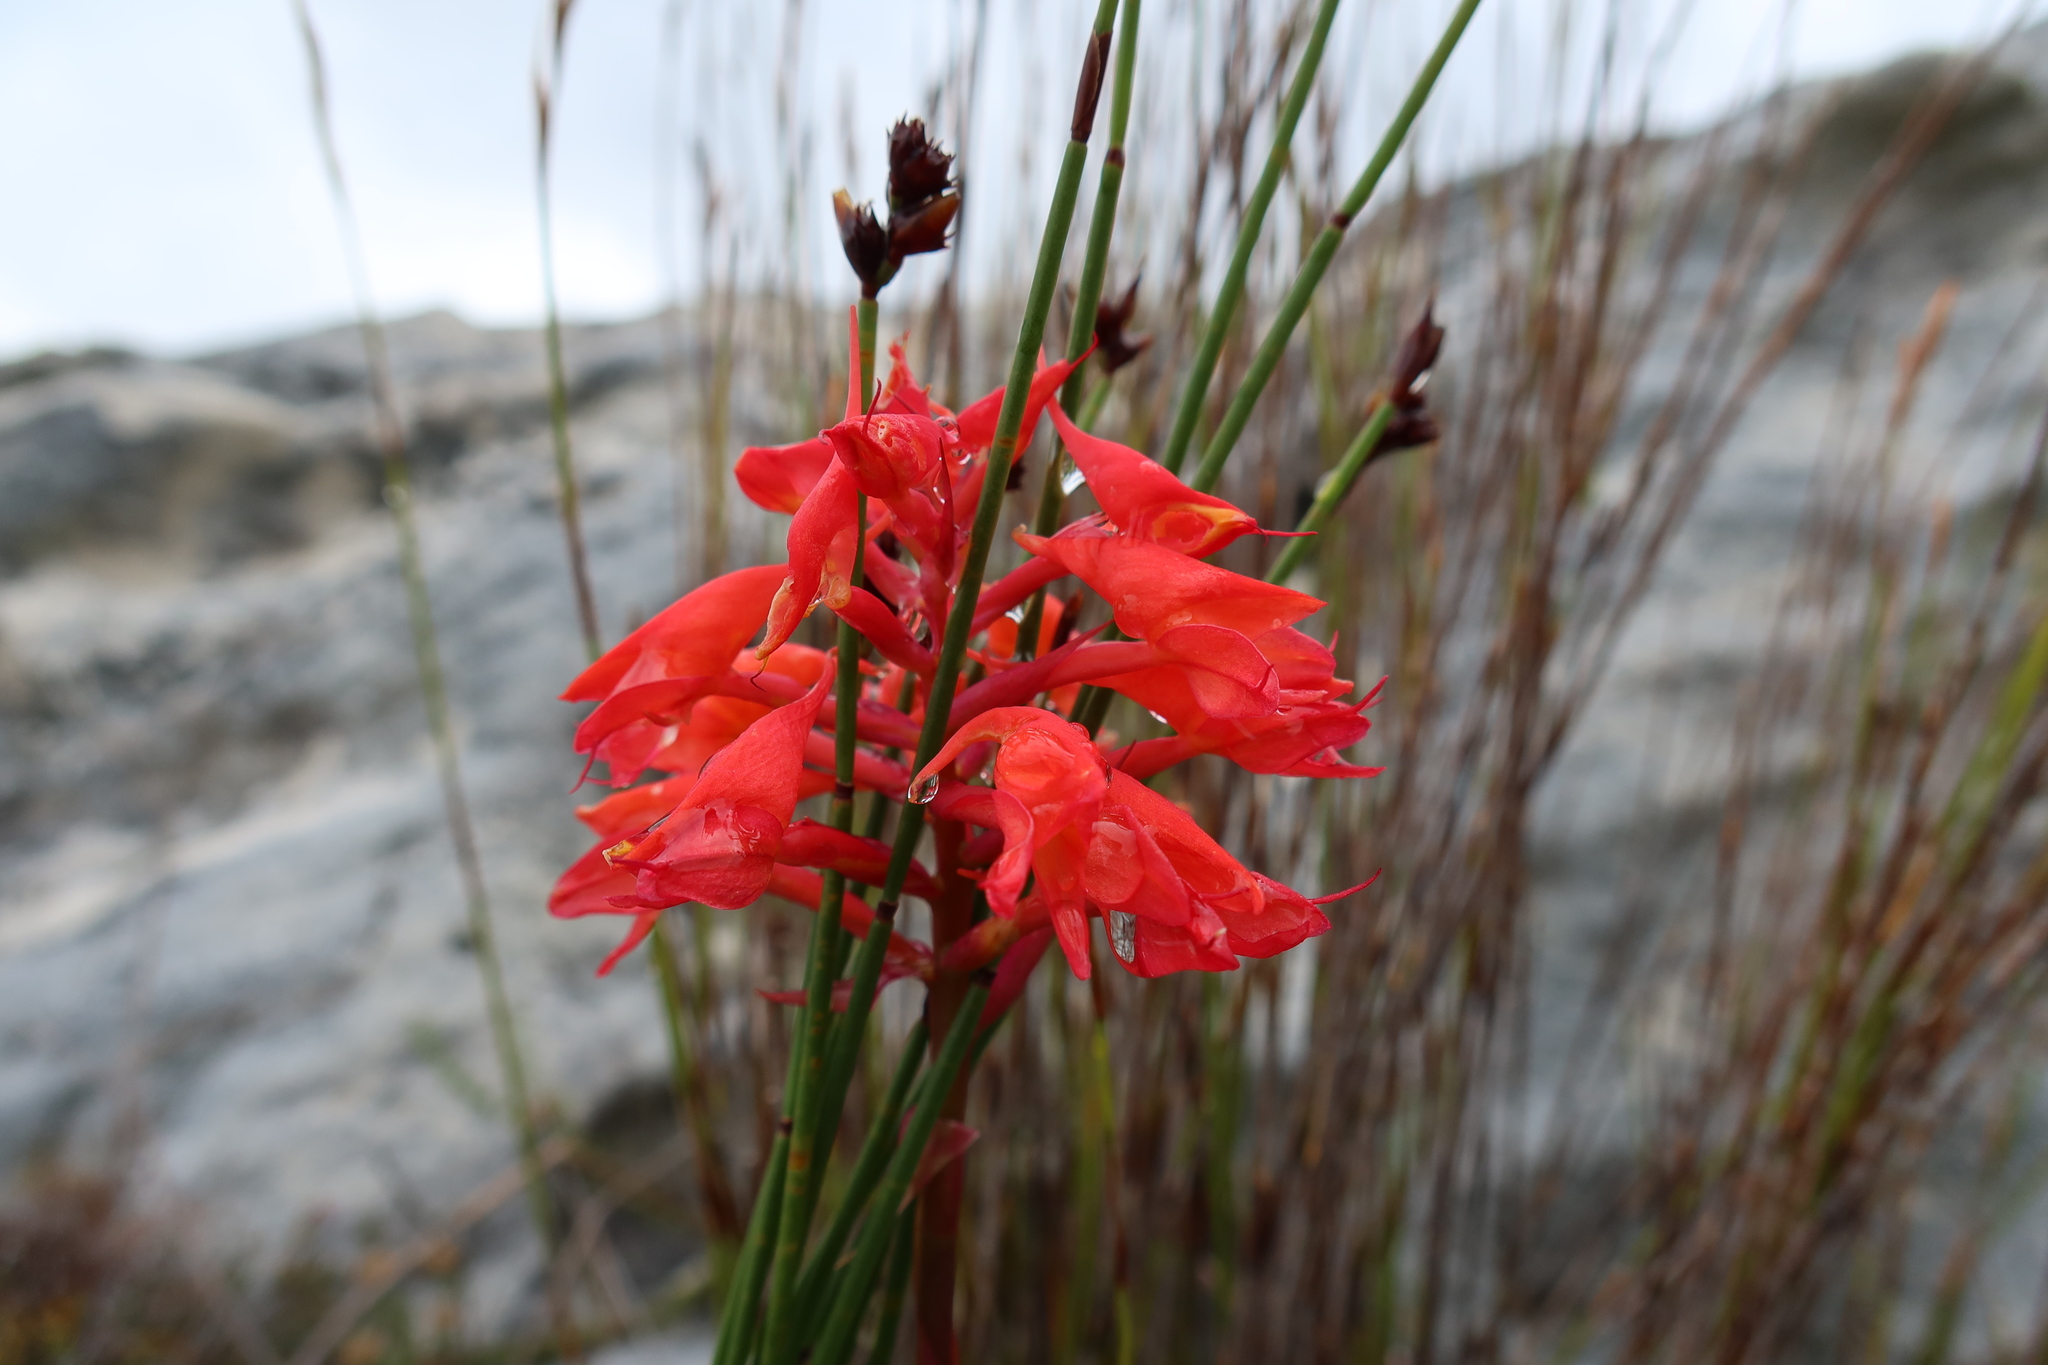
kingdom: Plantae
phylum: Tracheophyta
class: Liliopsida
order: Asparagales
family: Orchidaceae
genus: Disa
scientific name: Disa ferruginea
